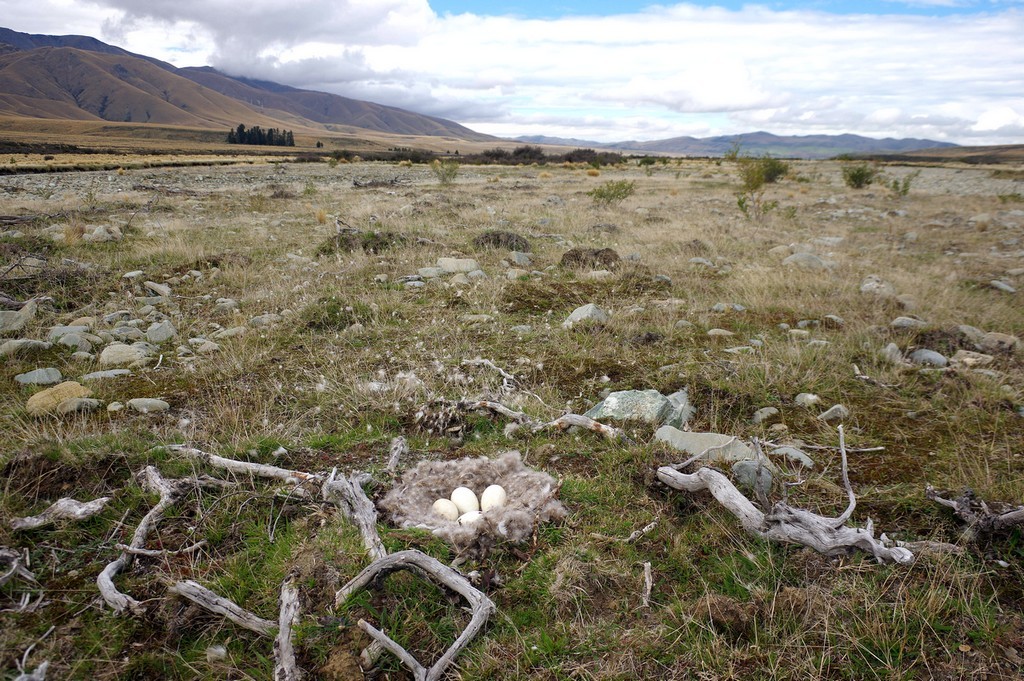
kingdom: Animalia
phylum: Chordata
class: Aves
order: Anseriformes
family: Anatidae
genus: Branta
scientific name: Branta canadensis
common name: Canada goose
